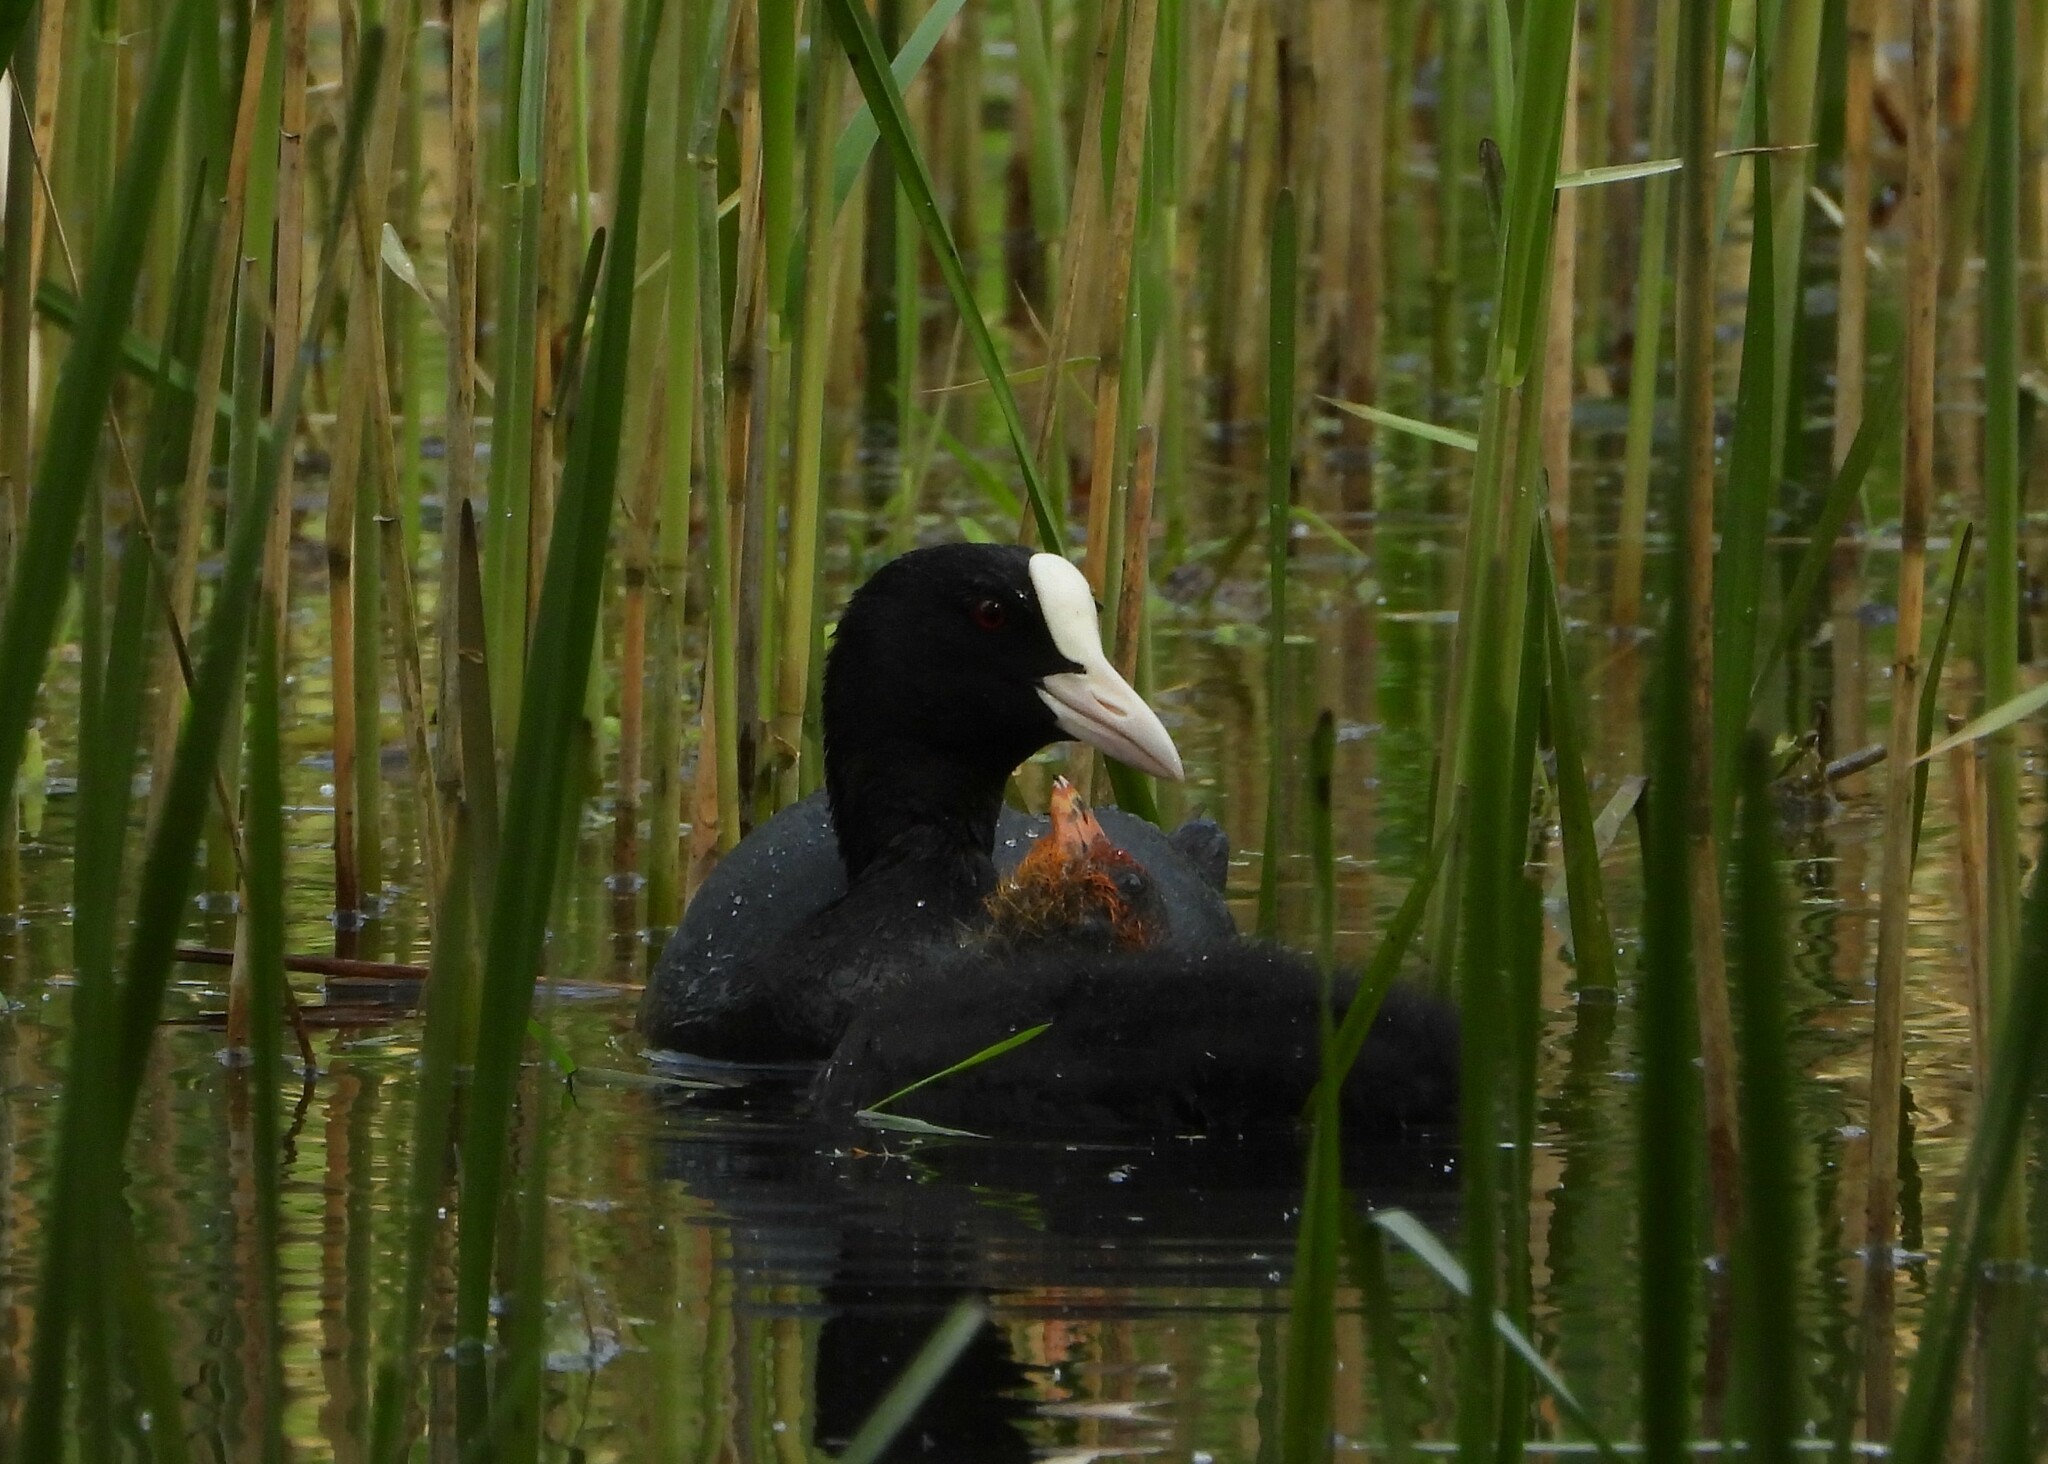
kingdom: Animalia
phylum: Chordata
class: Aves
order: Gruiformes
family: Rallidae
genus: Fulica
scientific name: Fulica atra
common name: Eurasian coot
